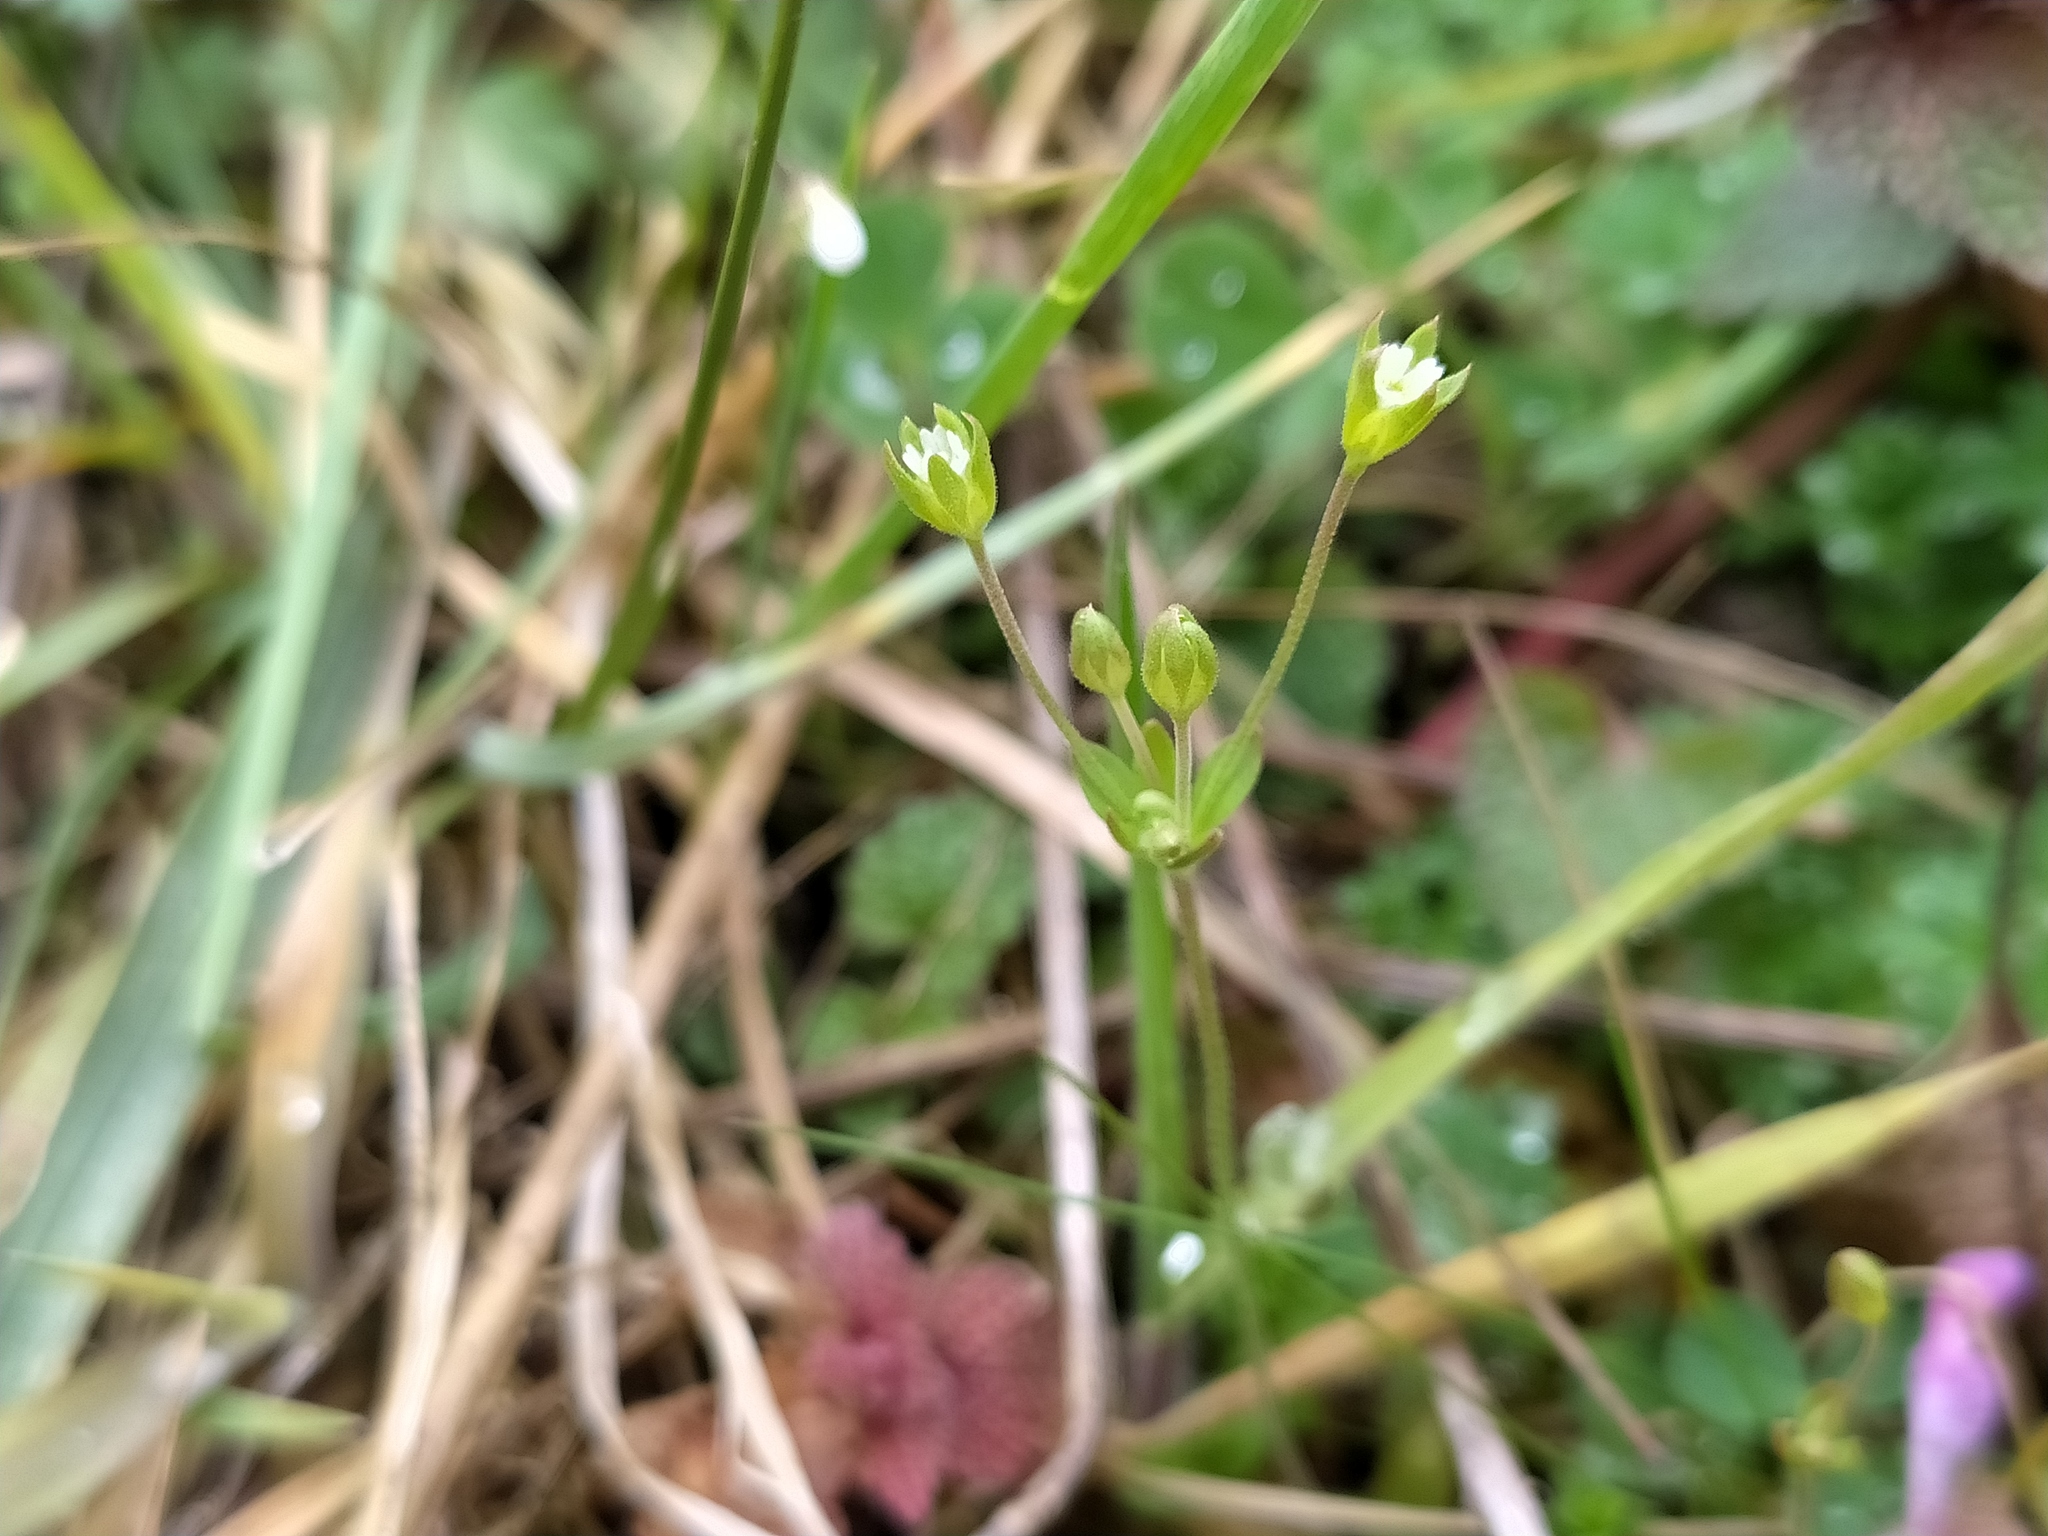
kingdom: Plantae
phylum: Tracheophyta
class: Magnoliopsida
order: Ericales
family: Primulaceae
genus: Androsace
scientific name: Androsace elongata
